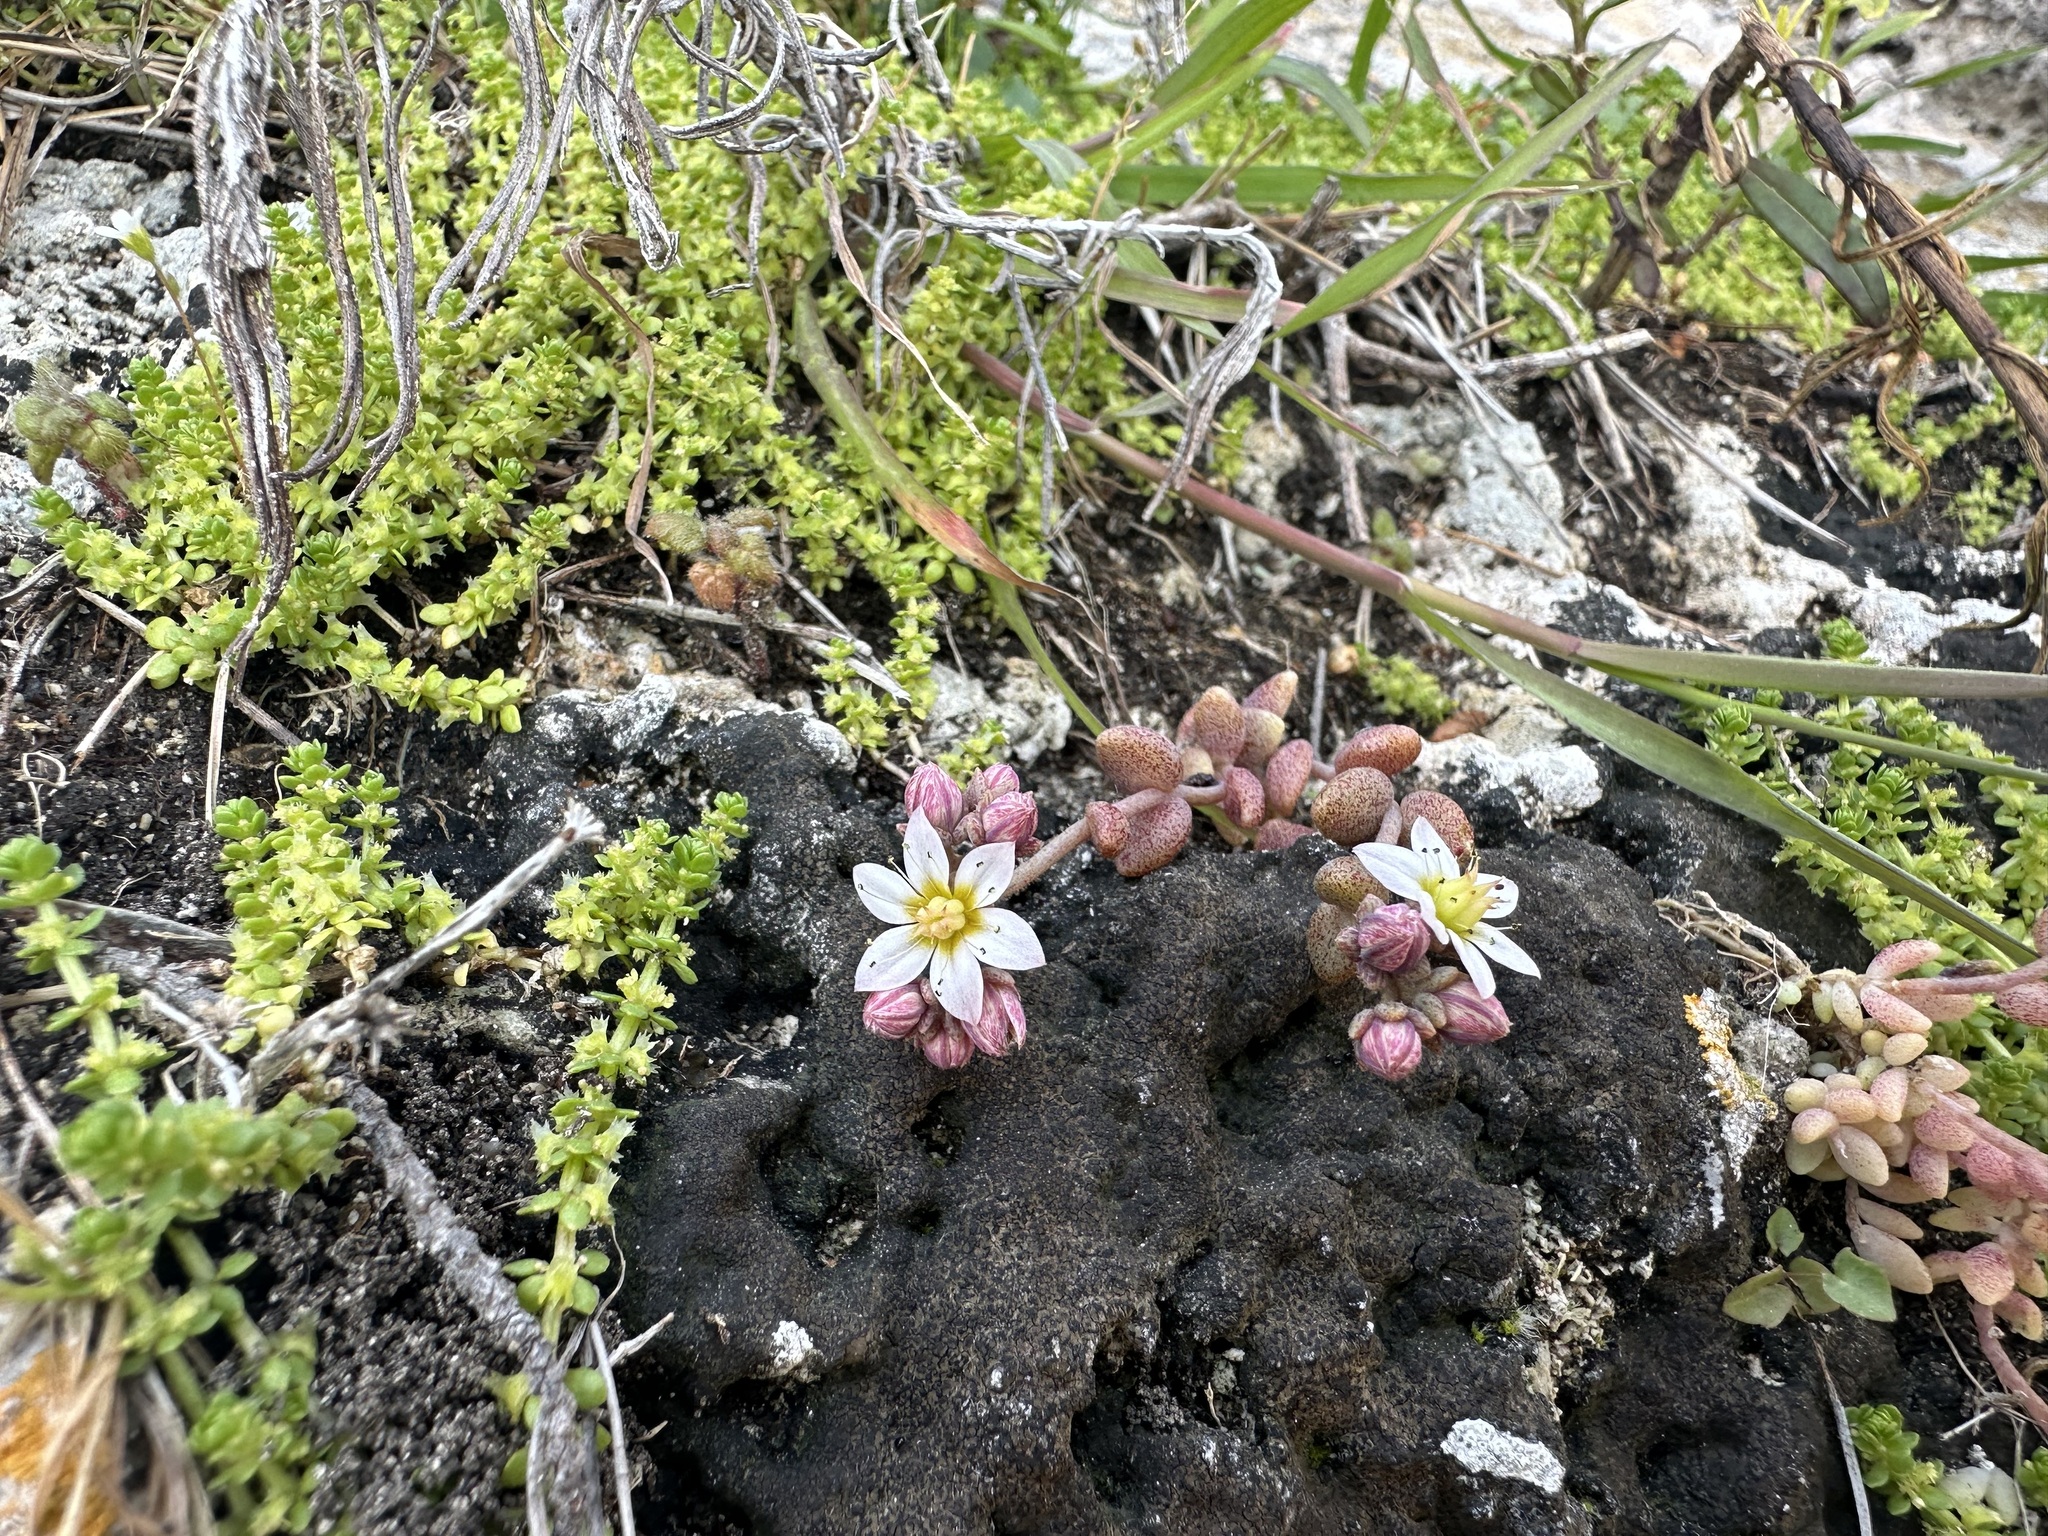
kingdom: Plantae
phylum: Tracheophyta
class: Magnoliopsida
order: Saxifragales
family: Crassulaceae
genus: Sedum
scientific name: Sedum dasyphyllum
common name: Thick-leaf stonecrop
